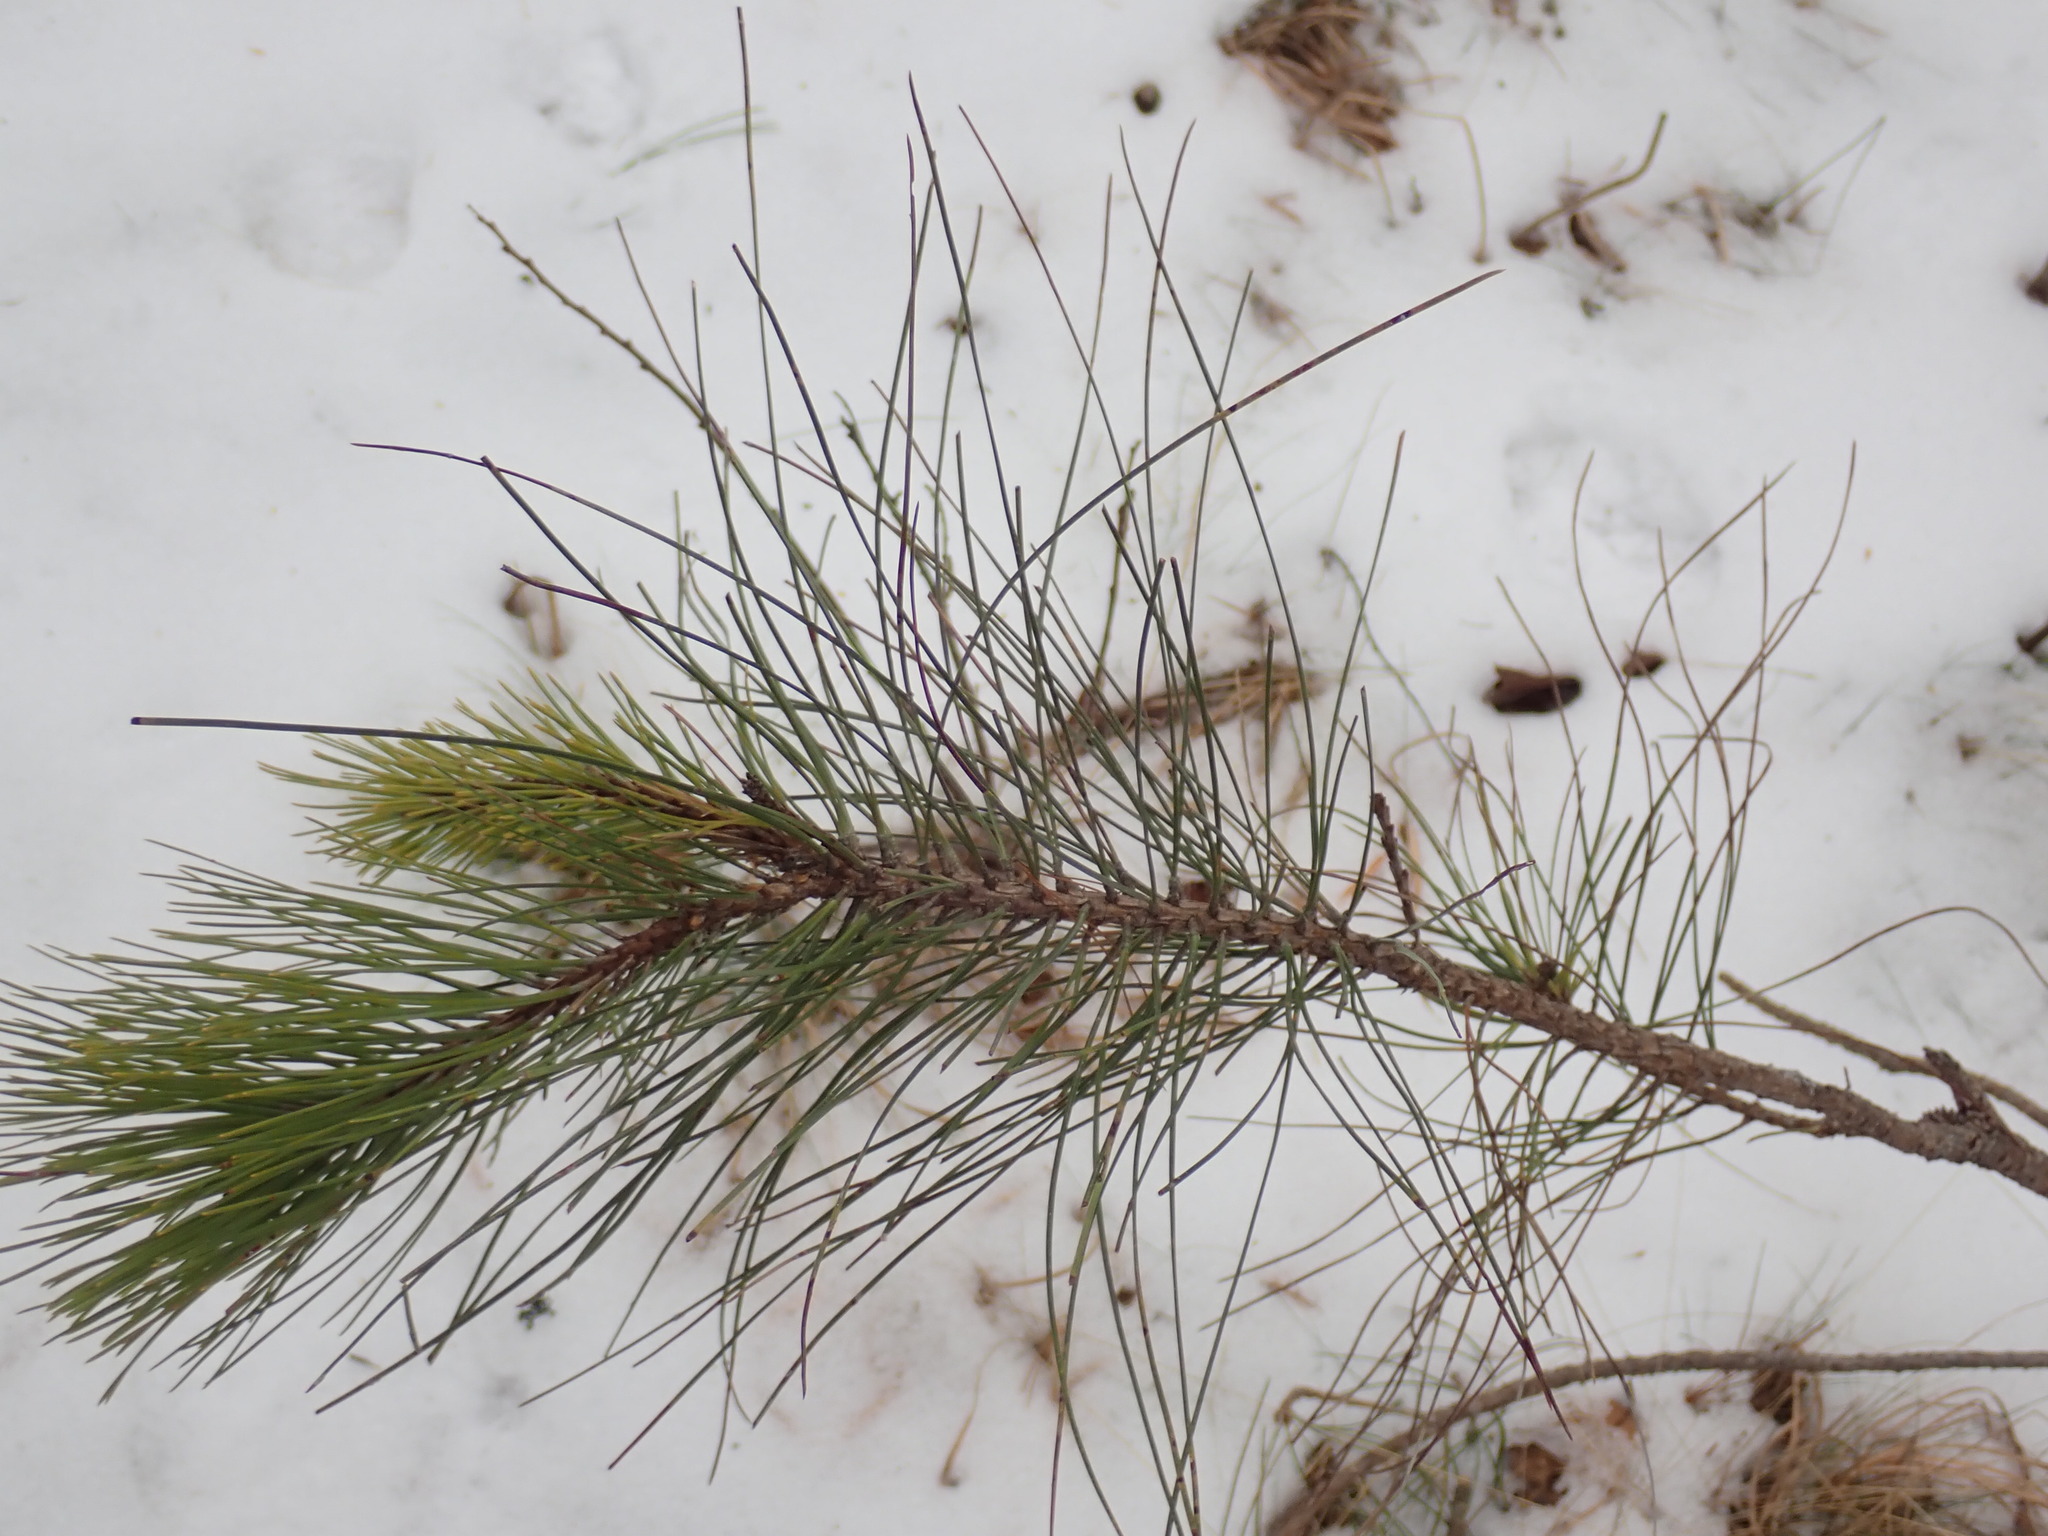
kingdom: Plantae
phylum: Tracheophyta
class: Pinopsida
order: Pinales
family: Pinaceae
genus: Pinus
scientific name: Pinus resinosa
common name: Norway pine
